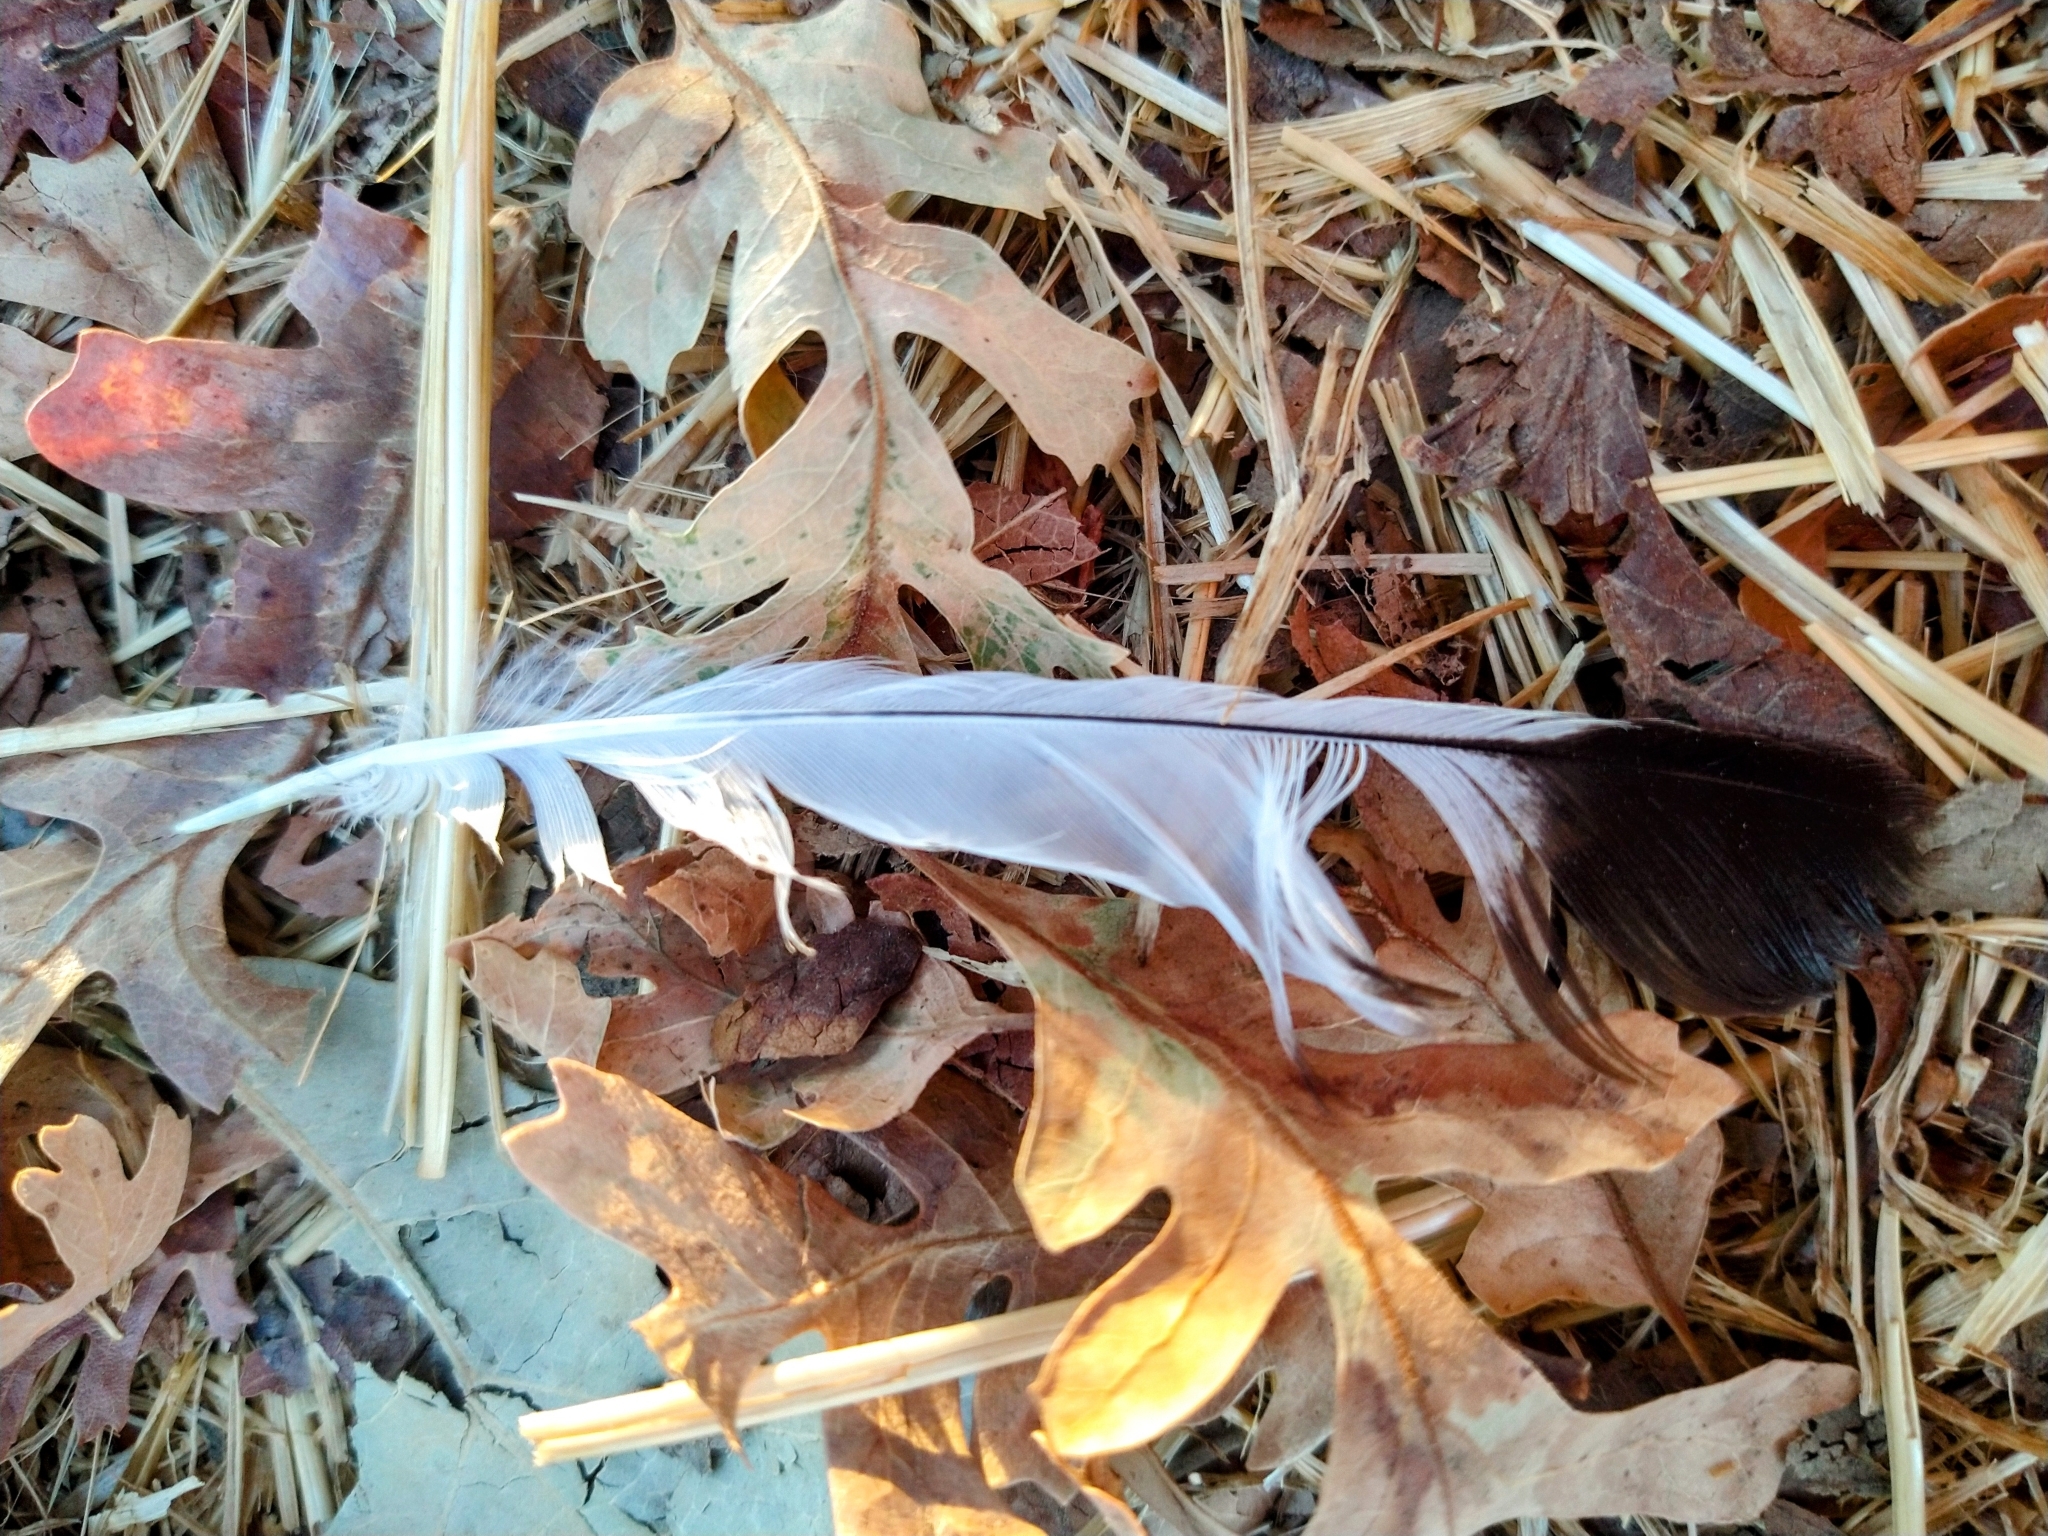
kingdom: Animalia
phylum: Chordata
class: Aves
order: Passeriformes
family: Mimidae
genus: Mimus
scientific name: Mimus polyglottos
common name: Northern mockingbird
